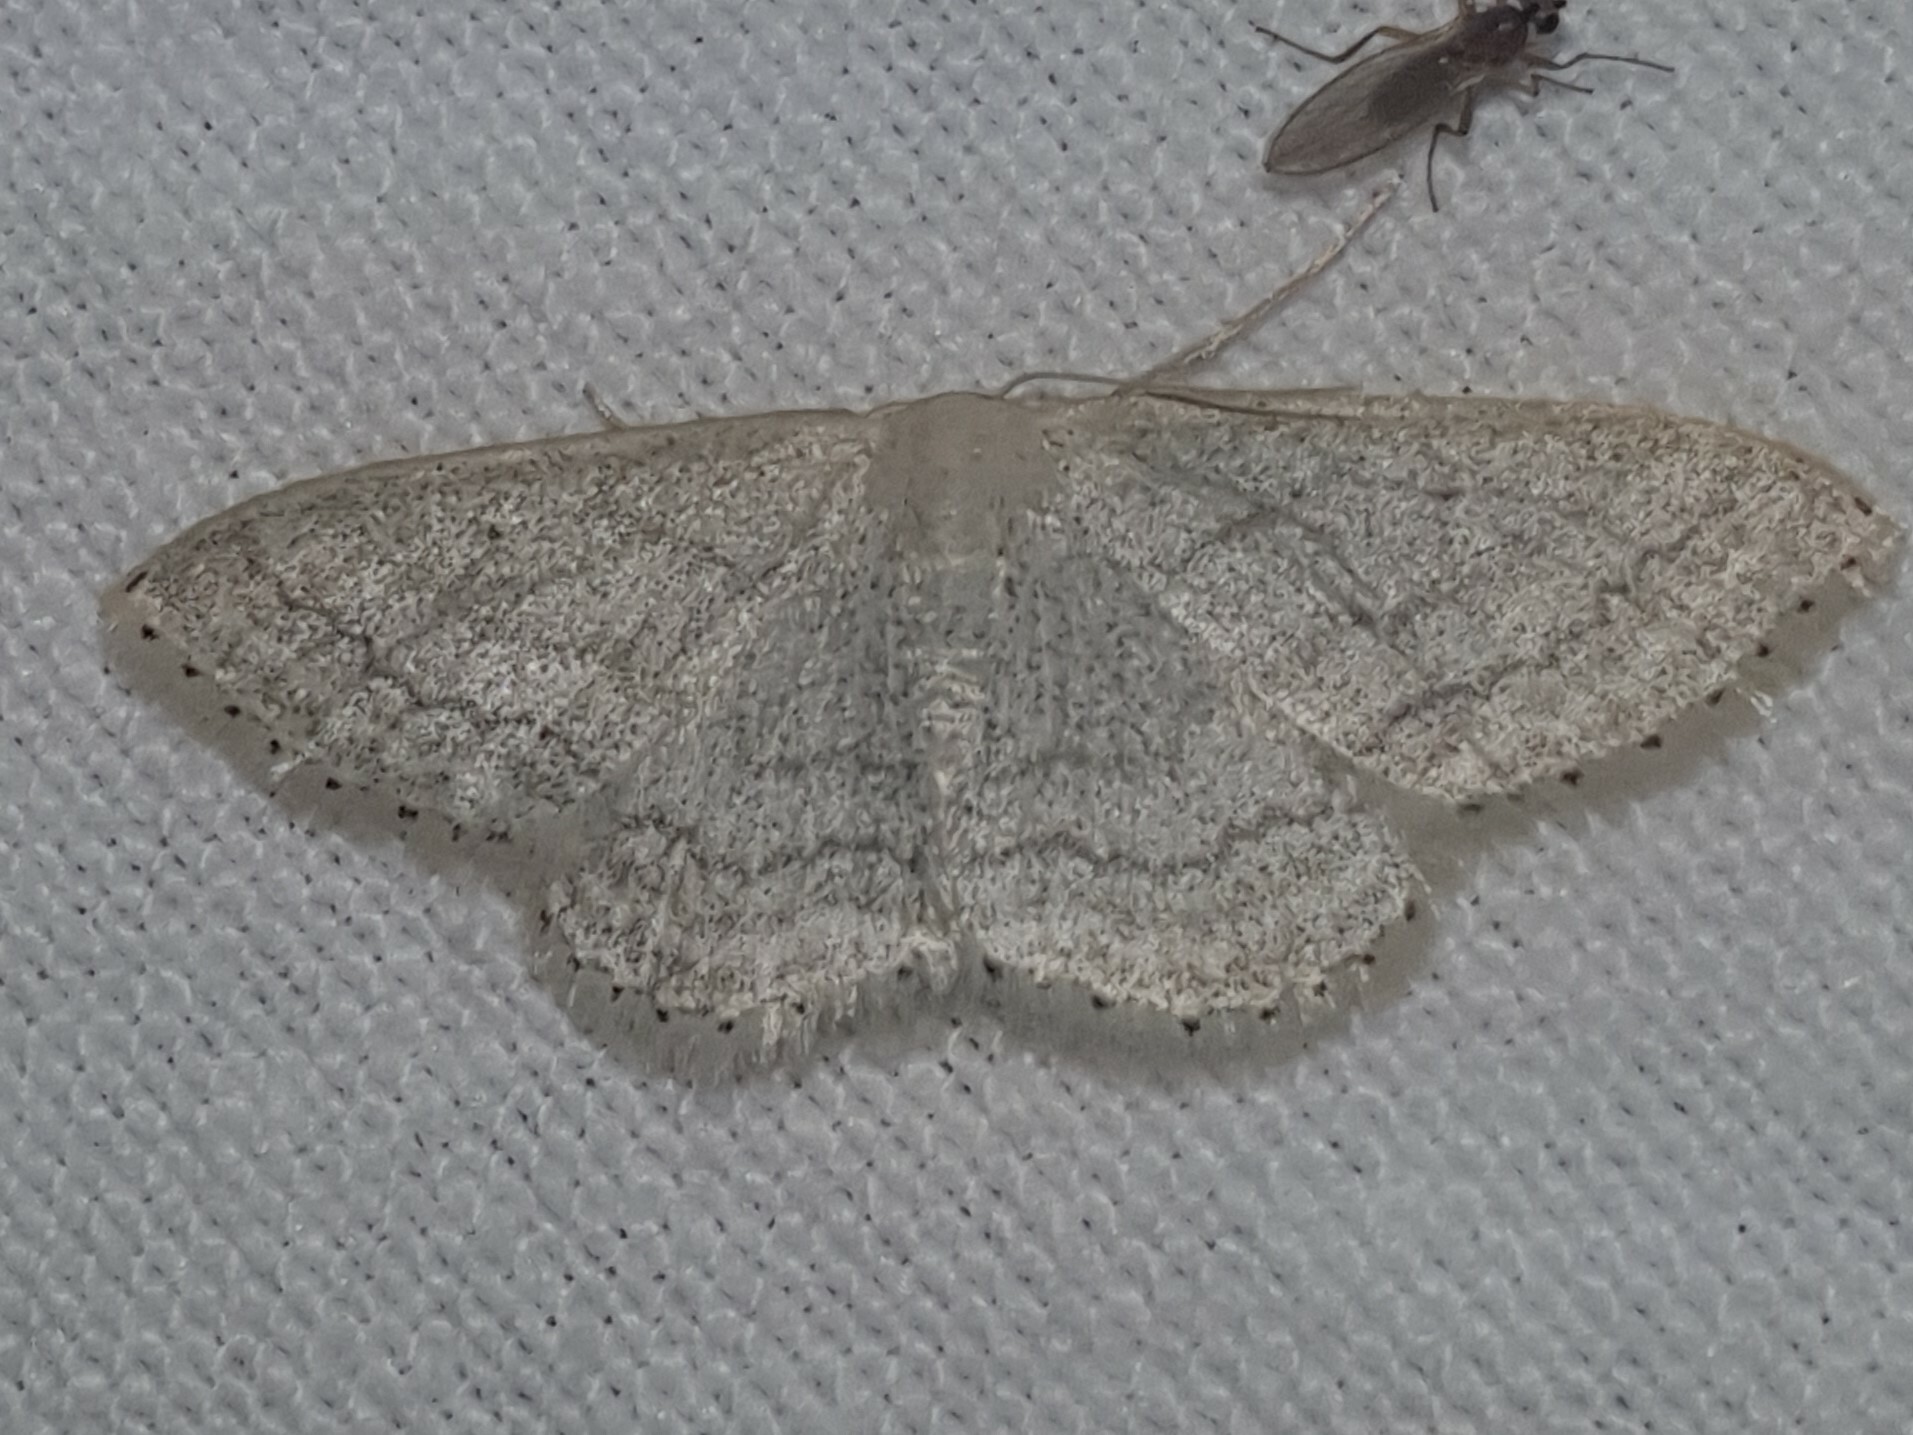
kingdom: Animalia
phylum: Arthropoda
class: Insecta
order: Lepidoptera
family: Geometridae
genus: Idaea
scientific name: Idaea subsericeata
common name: Satin wave
